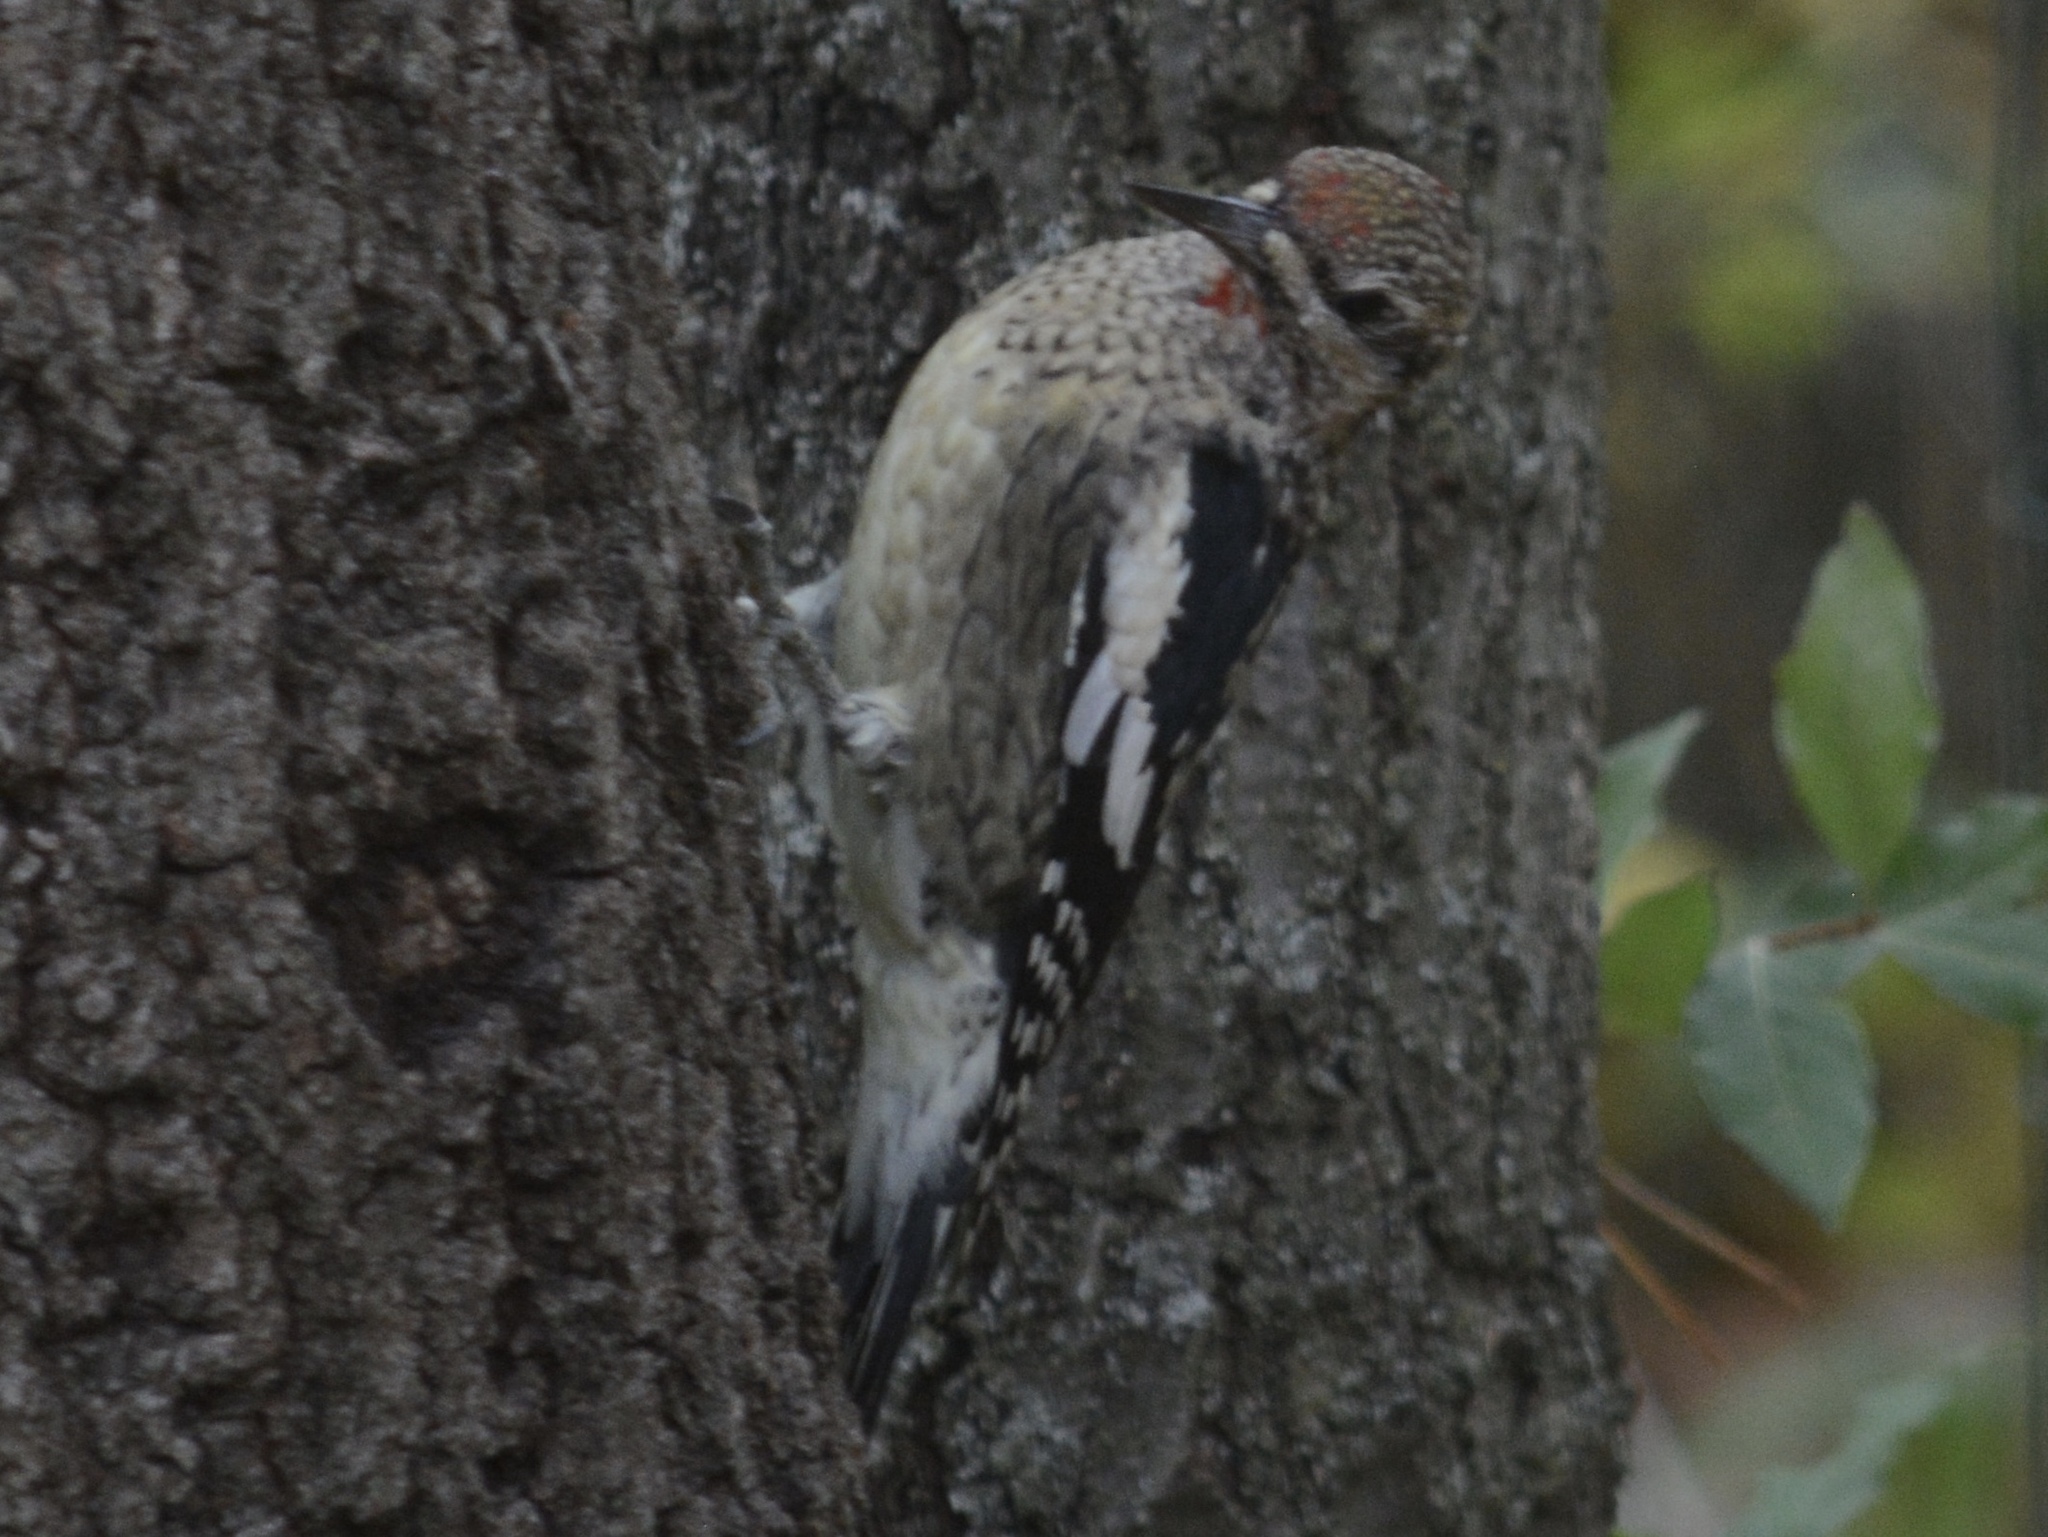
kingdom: Animalia
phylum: Chordata
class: Aves
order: Piciformes
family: Picidae
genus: Sphyrapicus
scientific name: Sphyrapicus varius
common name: Yellow-bellied sapsucker
